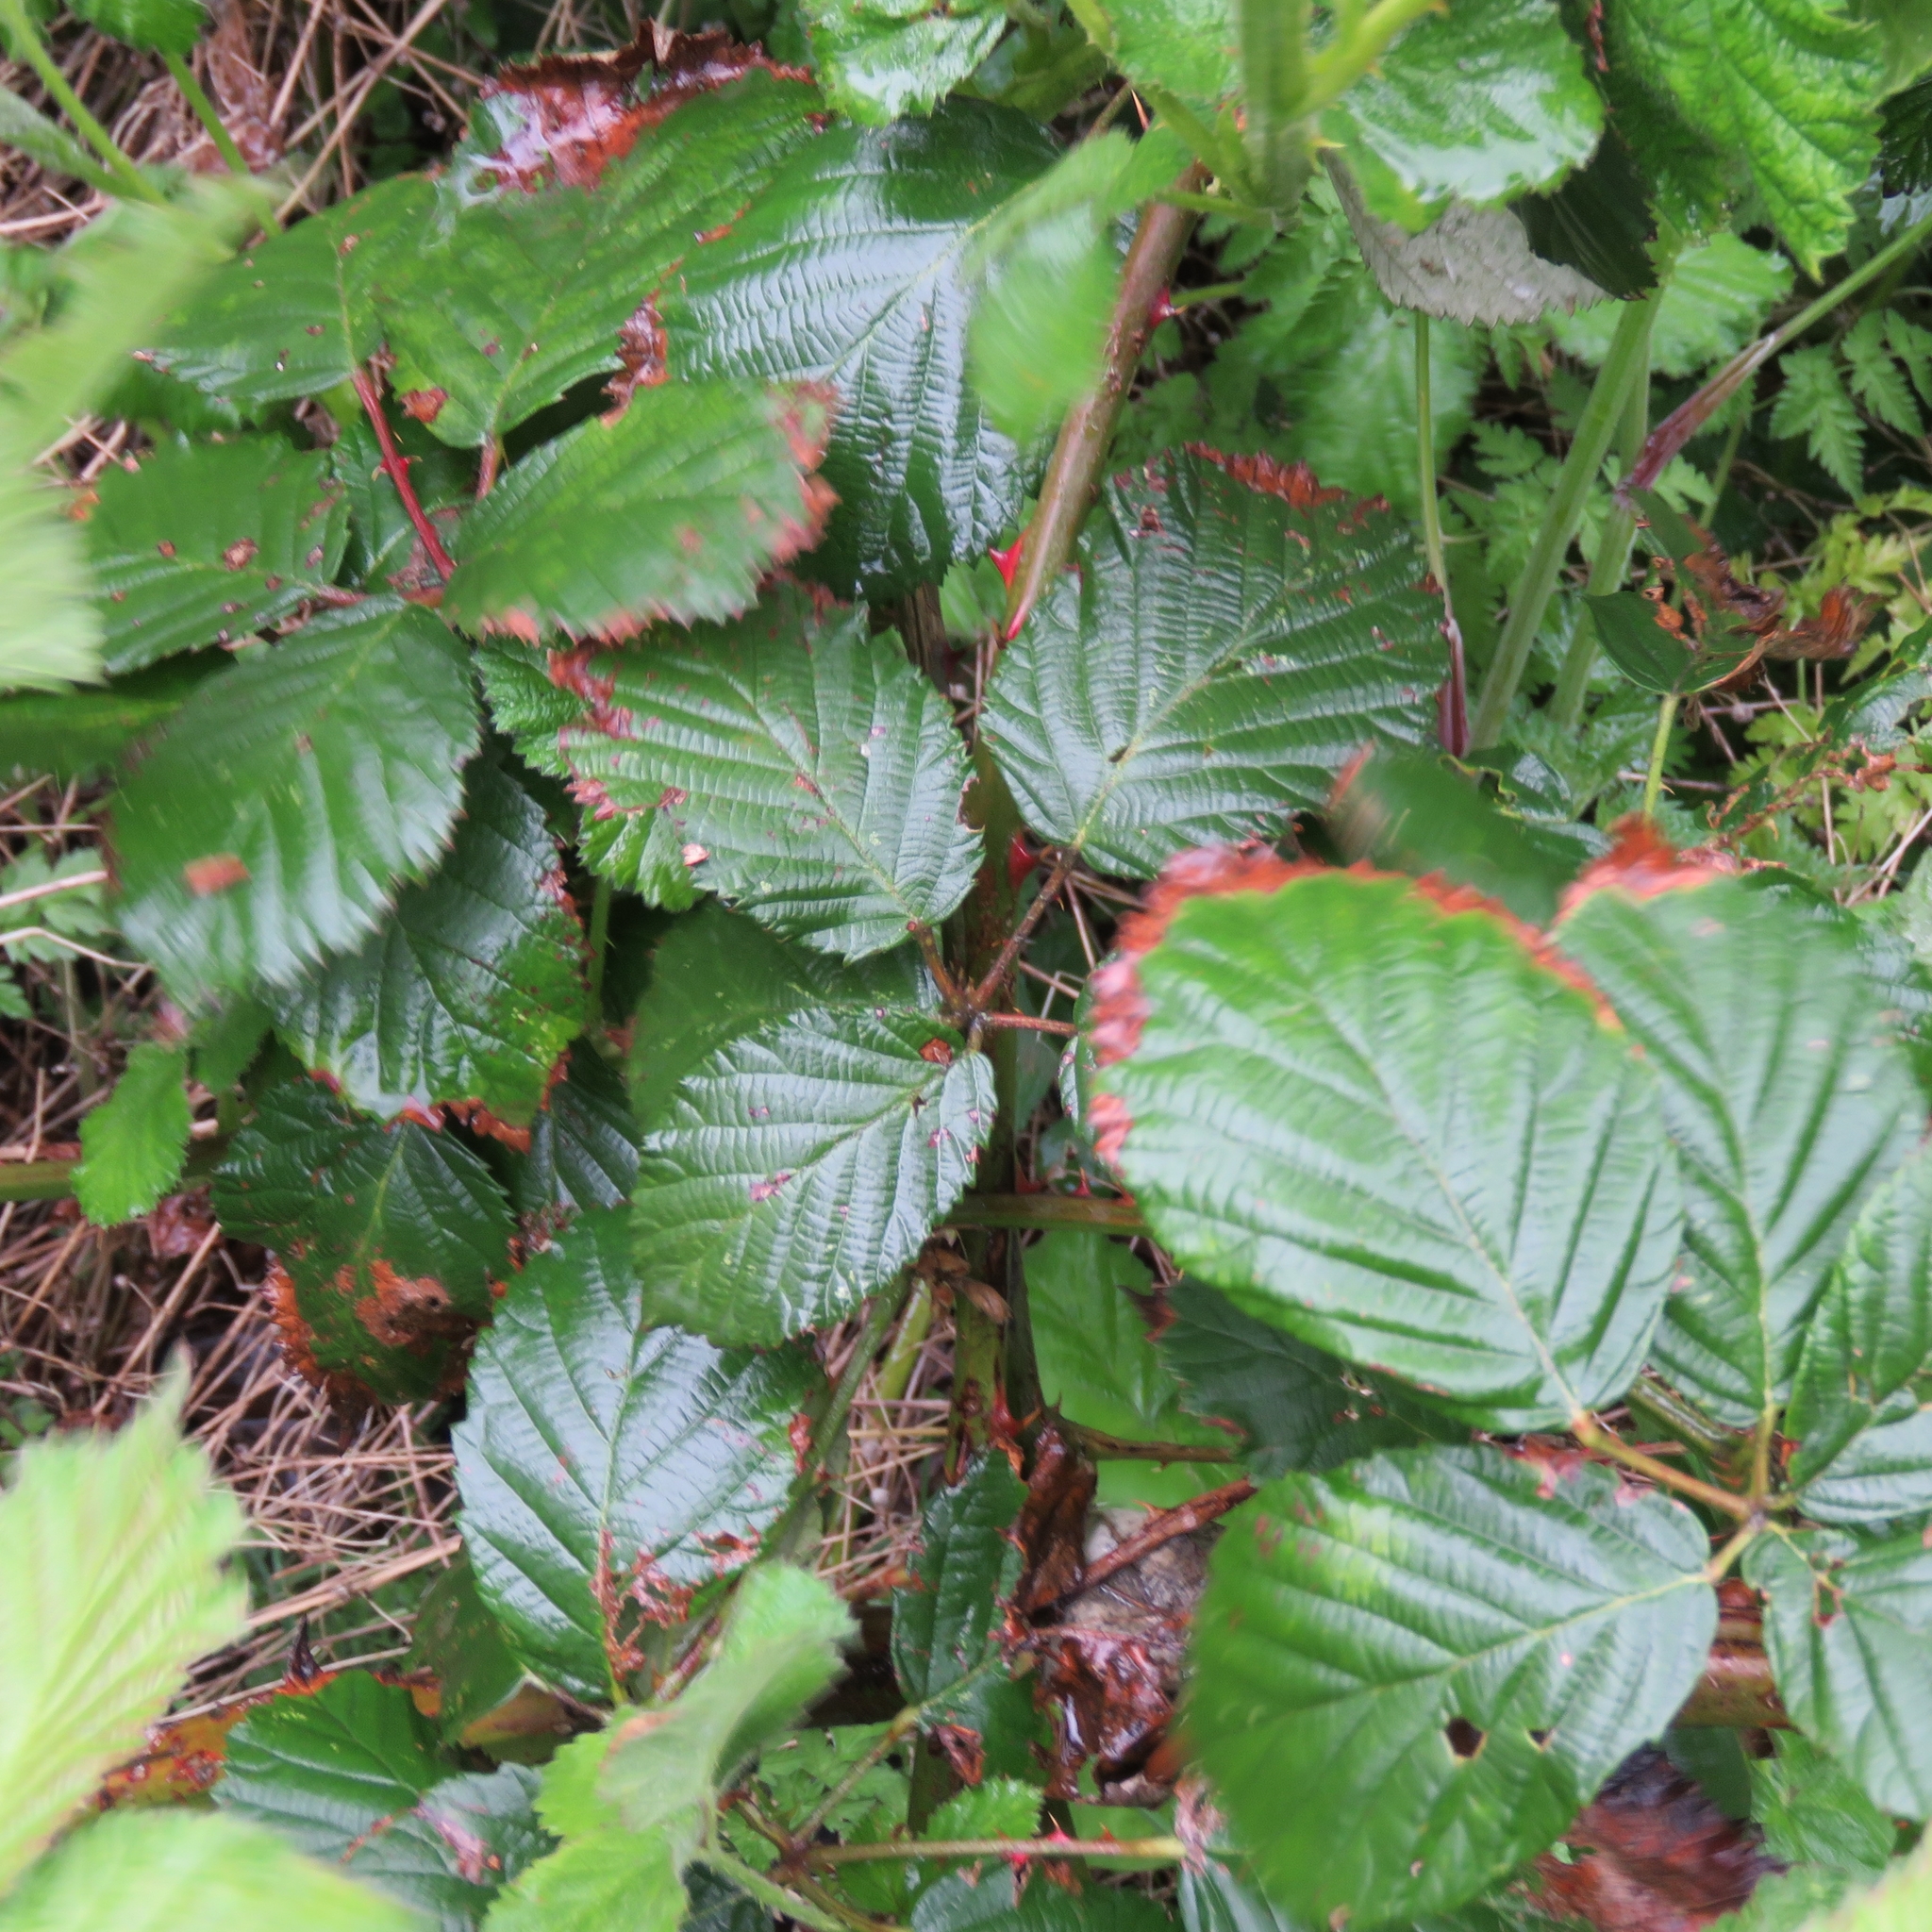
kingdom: Plantae
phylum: Tracheophyta
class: Magnoliopsida
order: Rosales
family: Rosaceae
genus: Rubus
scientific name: Rubus
